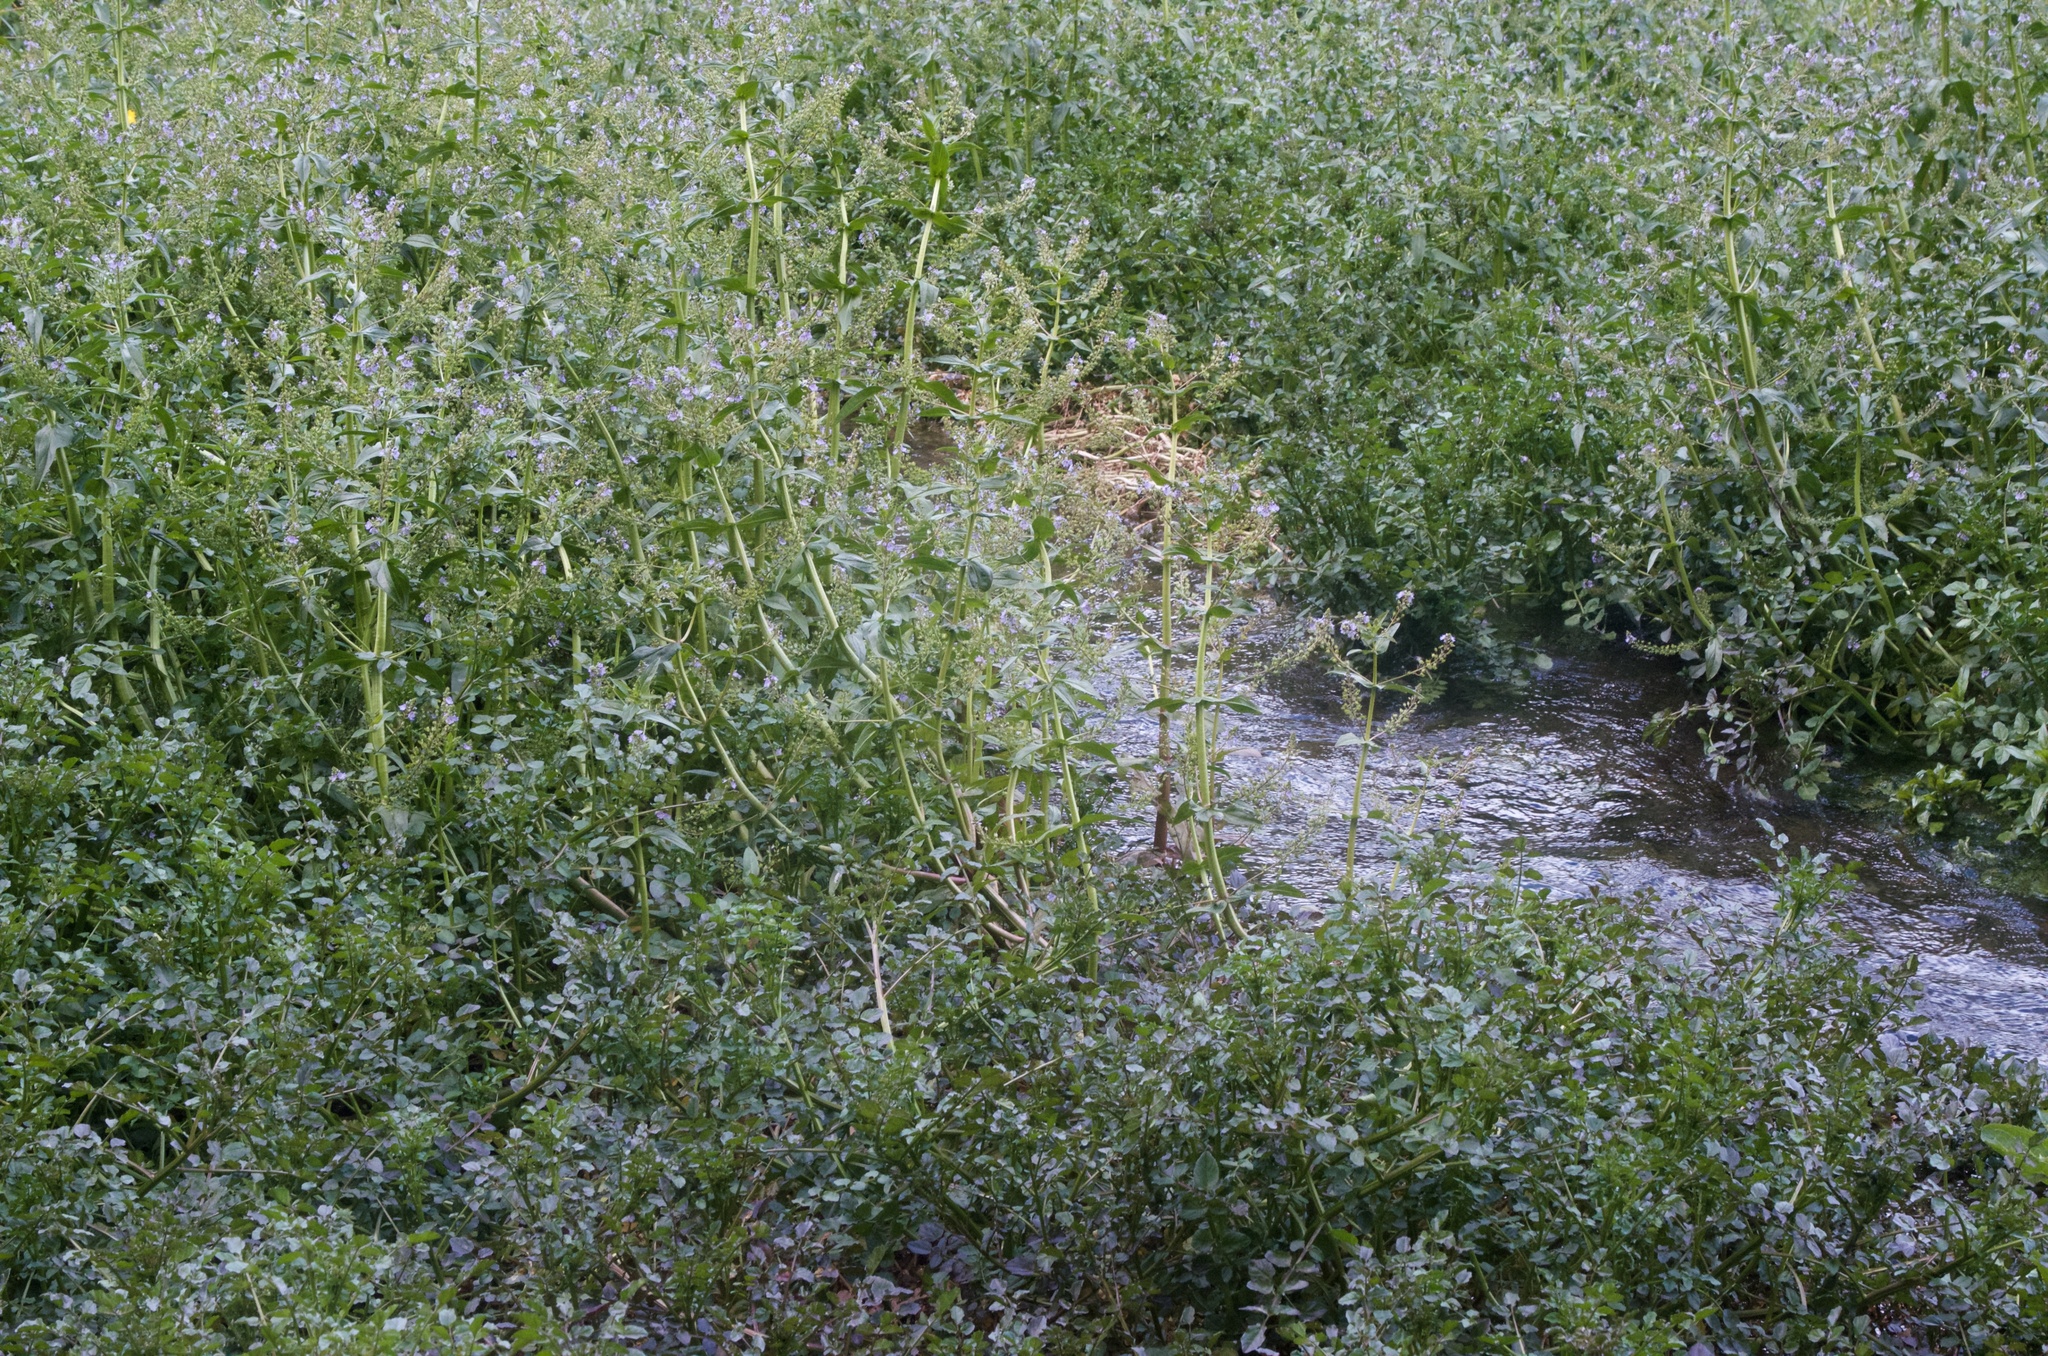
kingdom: Plantae
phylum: Tracheophyta
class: Magnoliopsida
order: Lamiales
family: Plantaginaceae
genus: Veronica
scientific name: Veronica anagallis-aquatica
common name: Water speedwell
